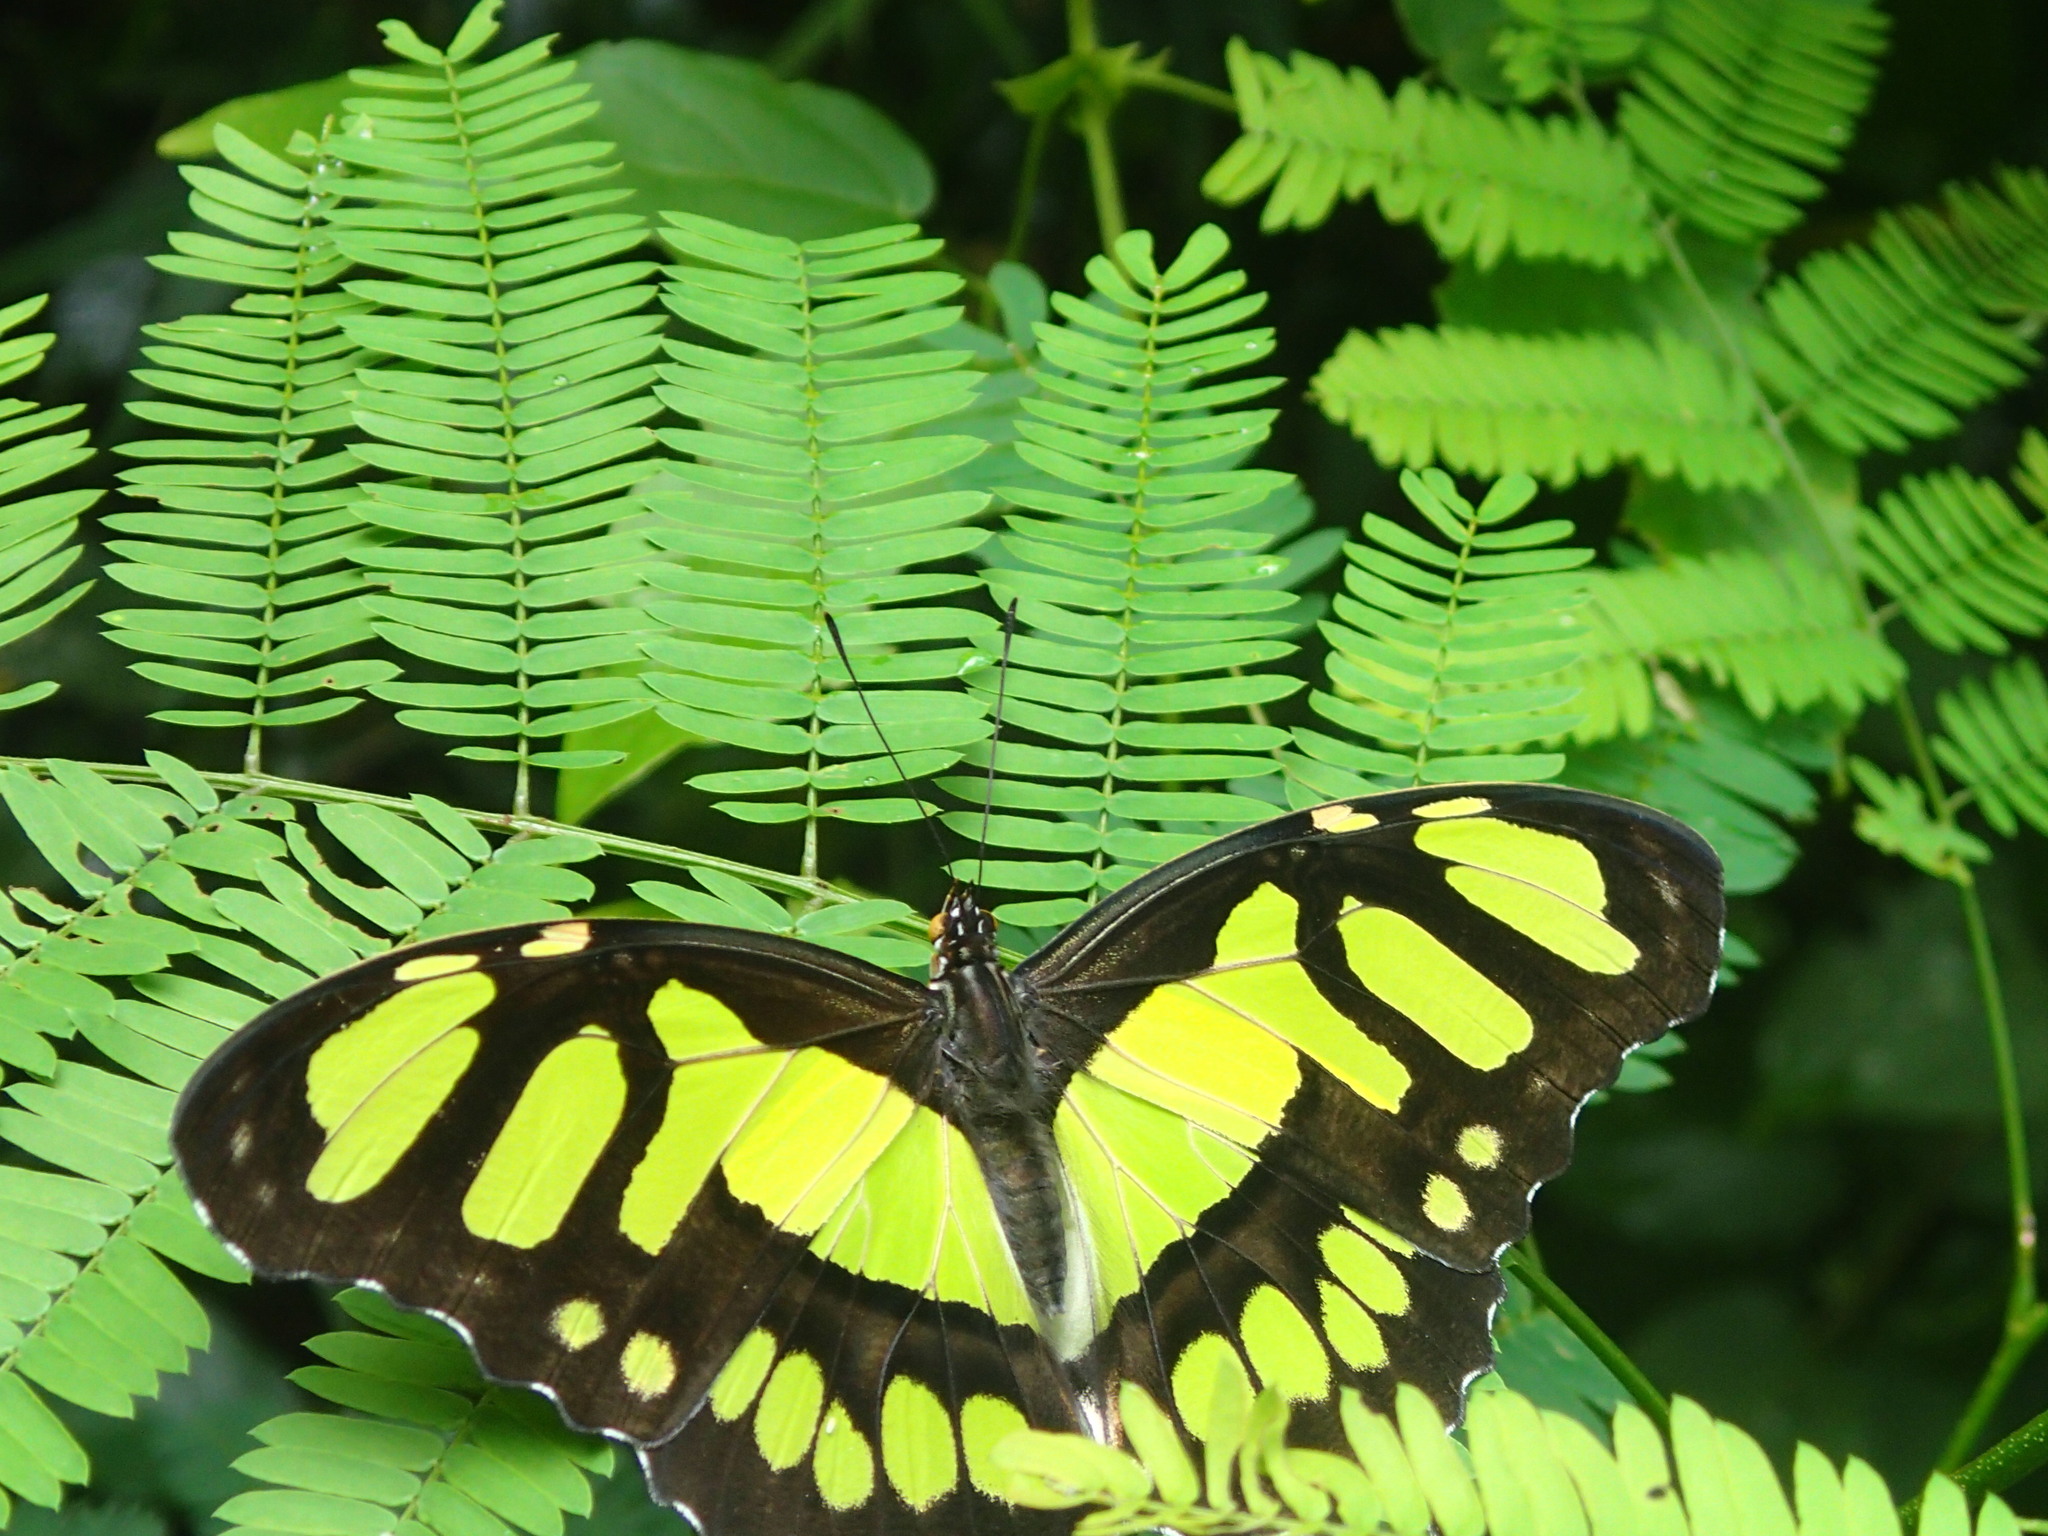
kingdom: Animalia
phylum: Arthropoda
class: Insecta
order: Lepidoptera
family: Nymphalidae
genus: Siproeta
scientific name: Siproeta stelenes
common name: Malachite
